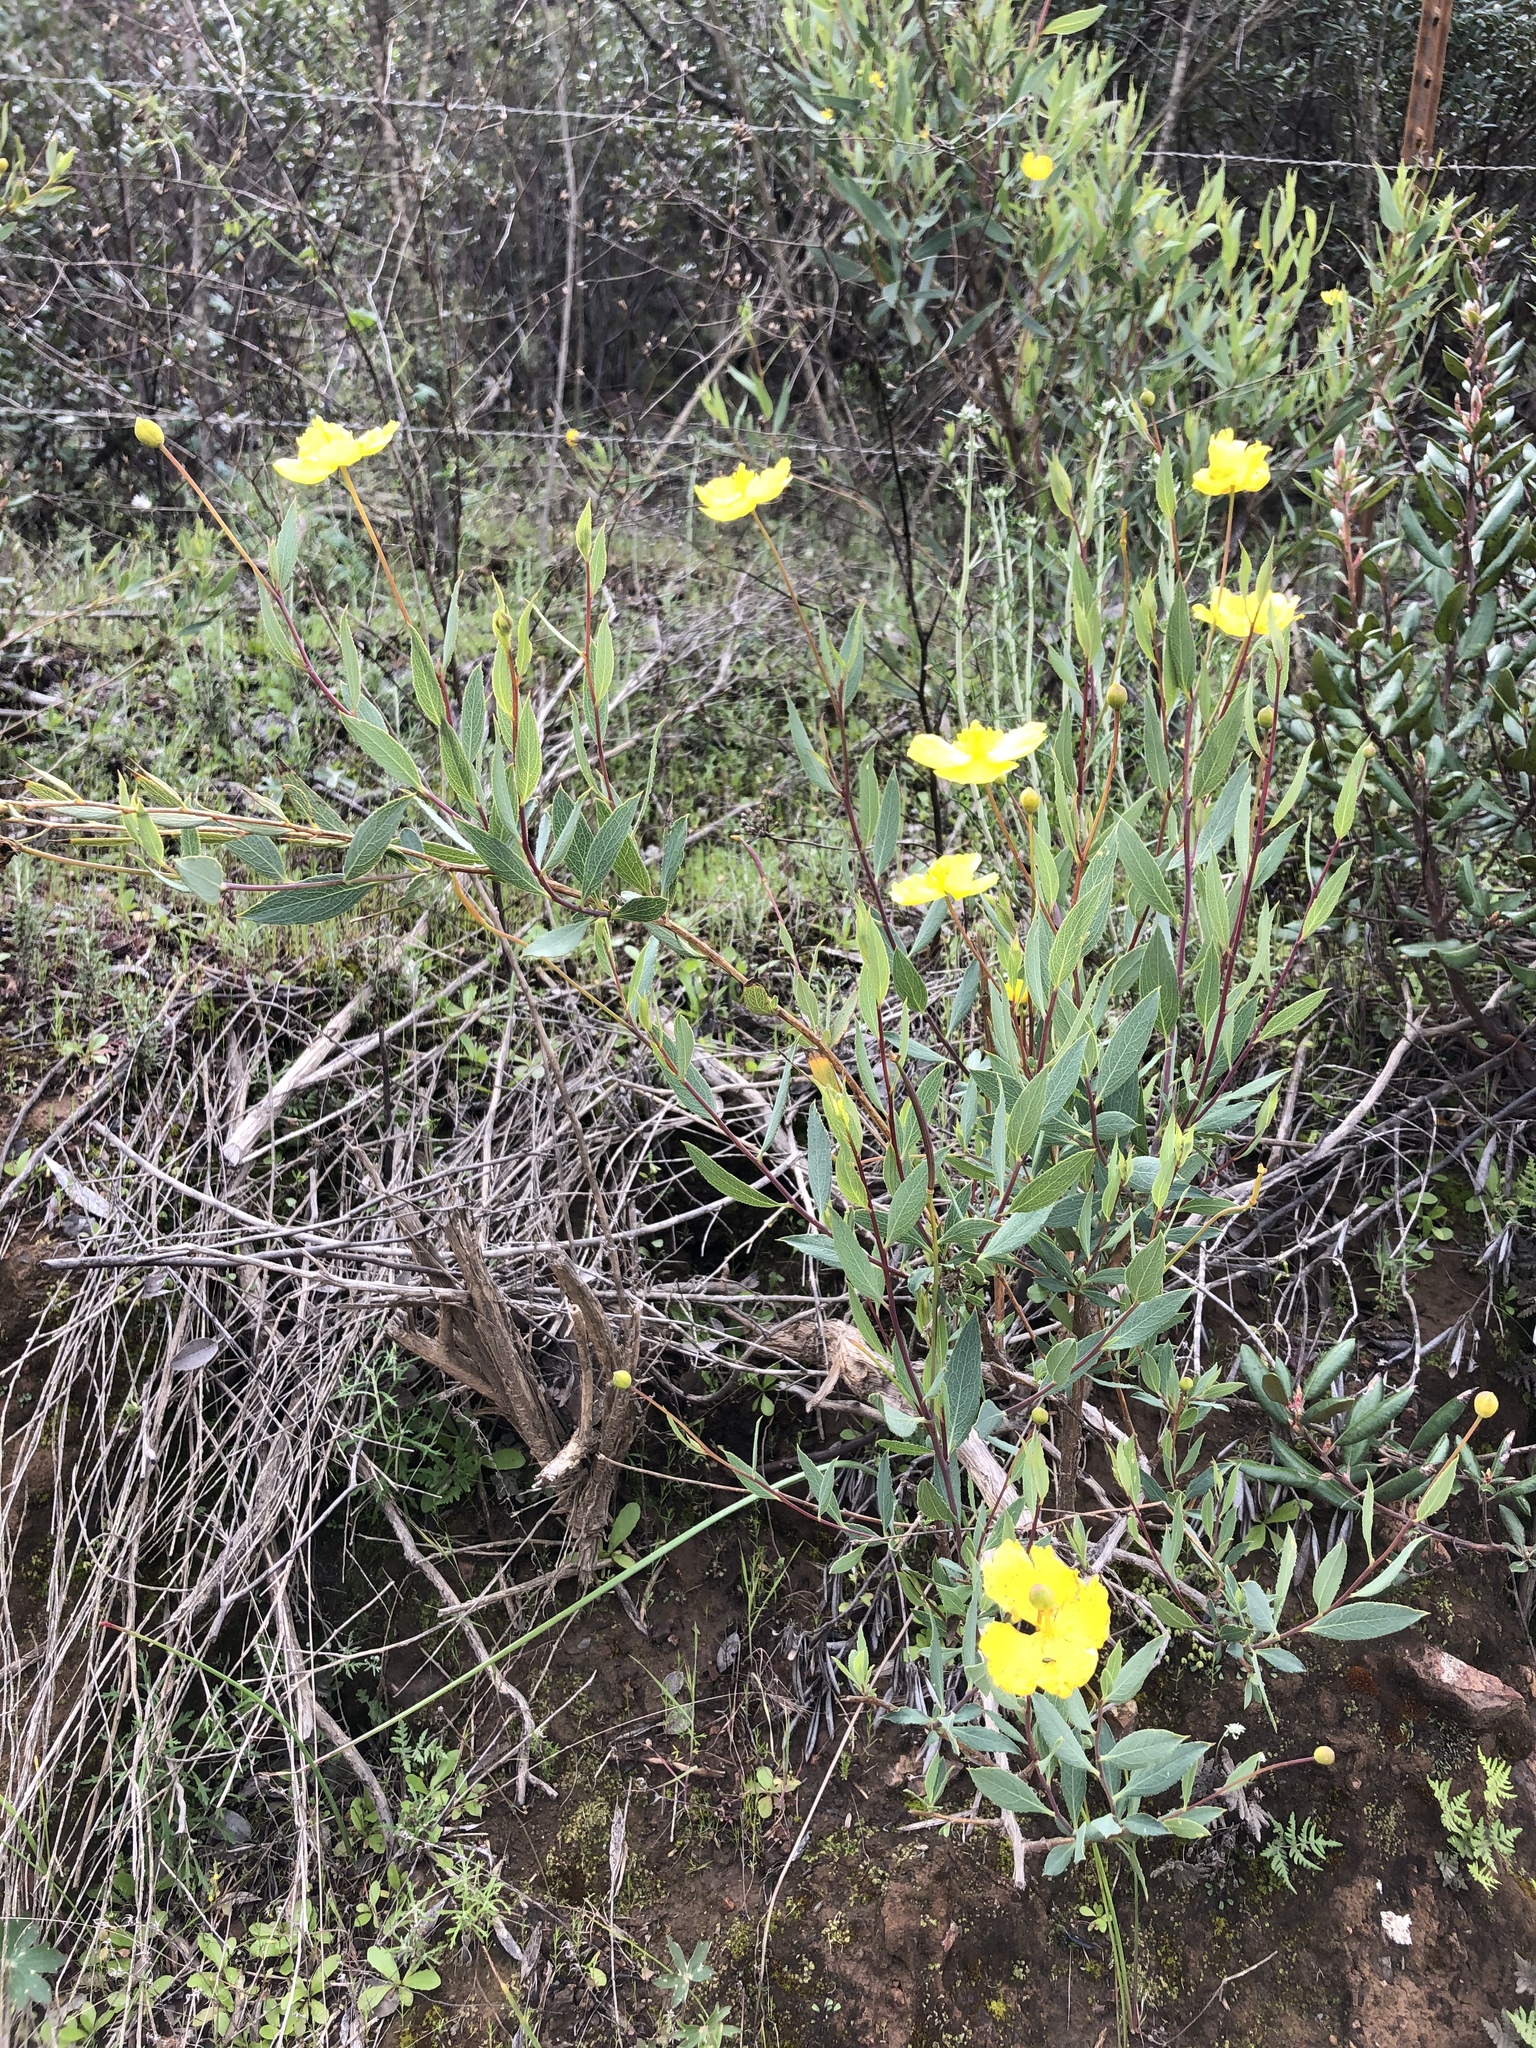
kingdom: Plantae
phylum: Tracheophyta
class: Magnoliopsida
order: Ranunculales
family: Papaveraceae
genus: Dendromecon
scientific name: Dendromecon rigida
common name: Tree poppy
